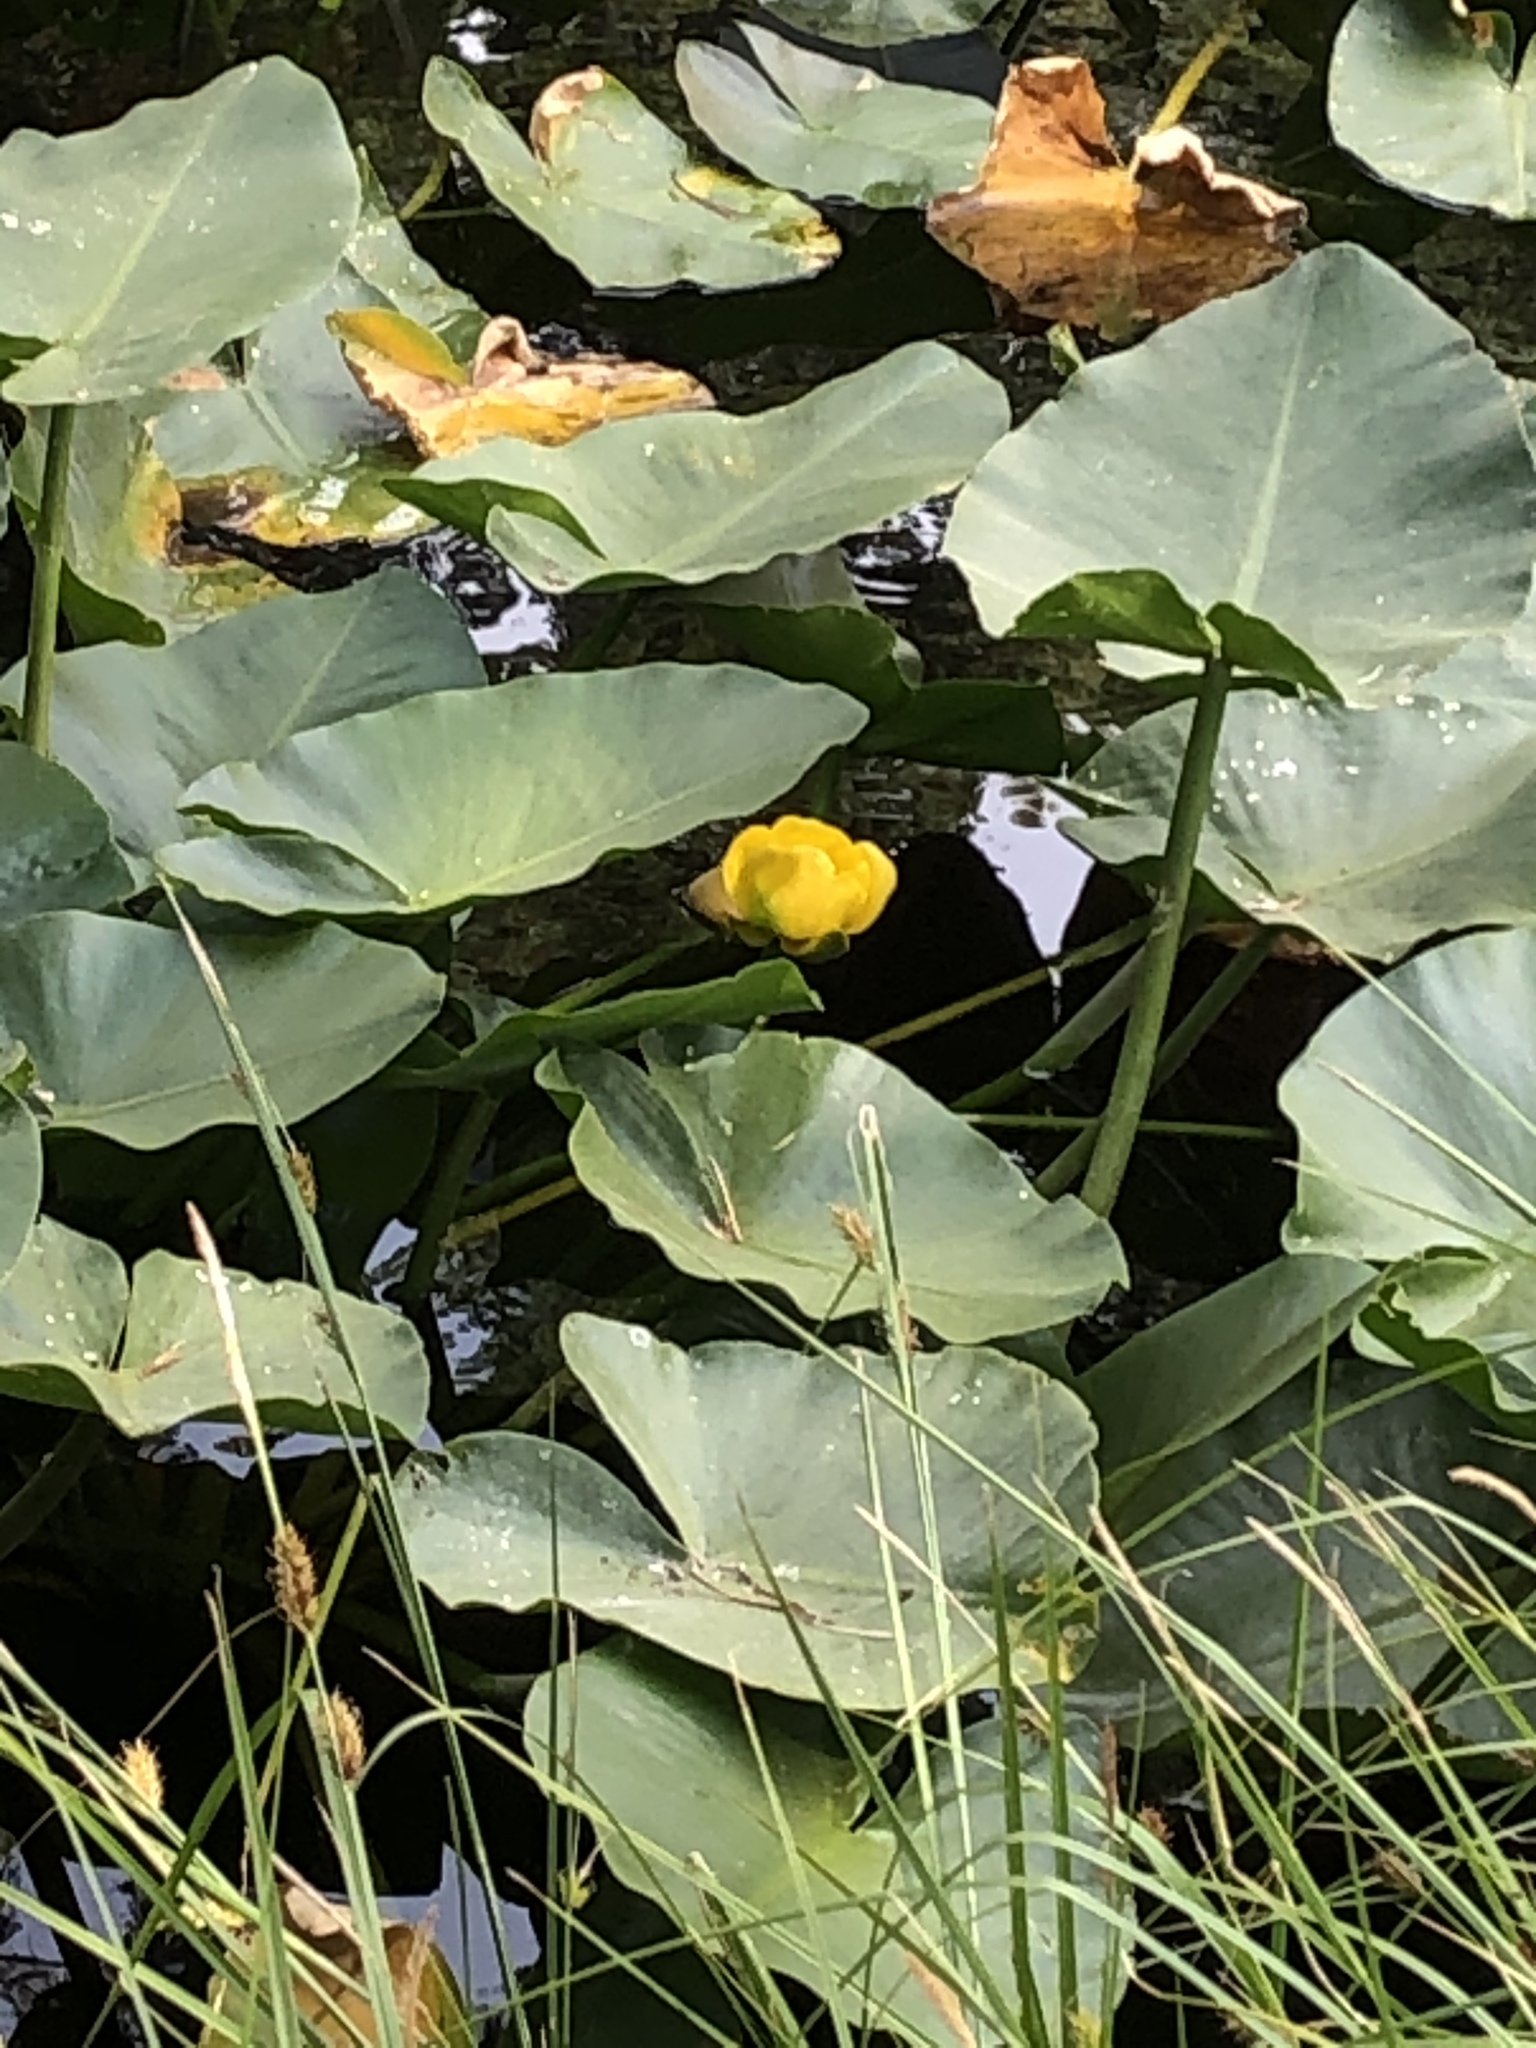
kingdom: Plantae
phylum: Tracheophyta
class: Magnoliopsida
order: Nymphaeales
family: Nymphaeaceae
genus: Nuphar
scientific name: Nuphar polysepala
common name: Rocky mountain cow-lily
